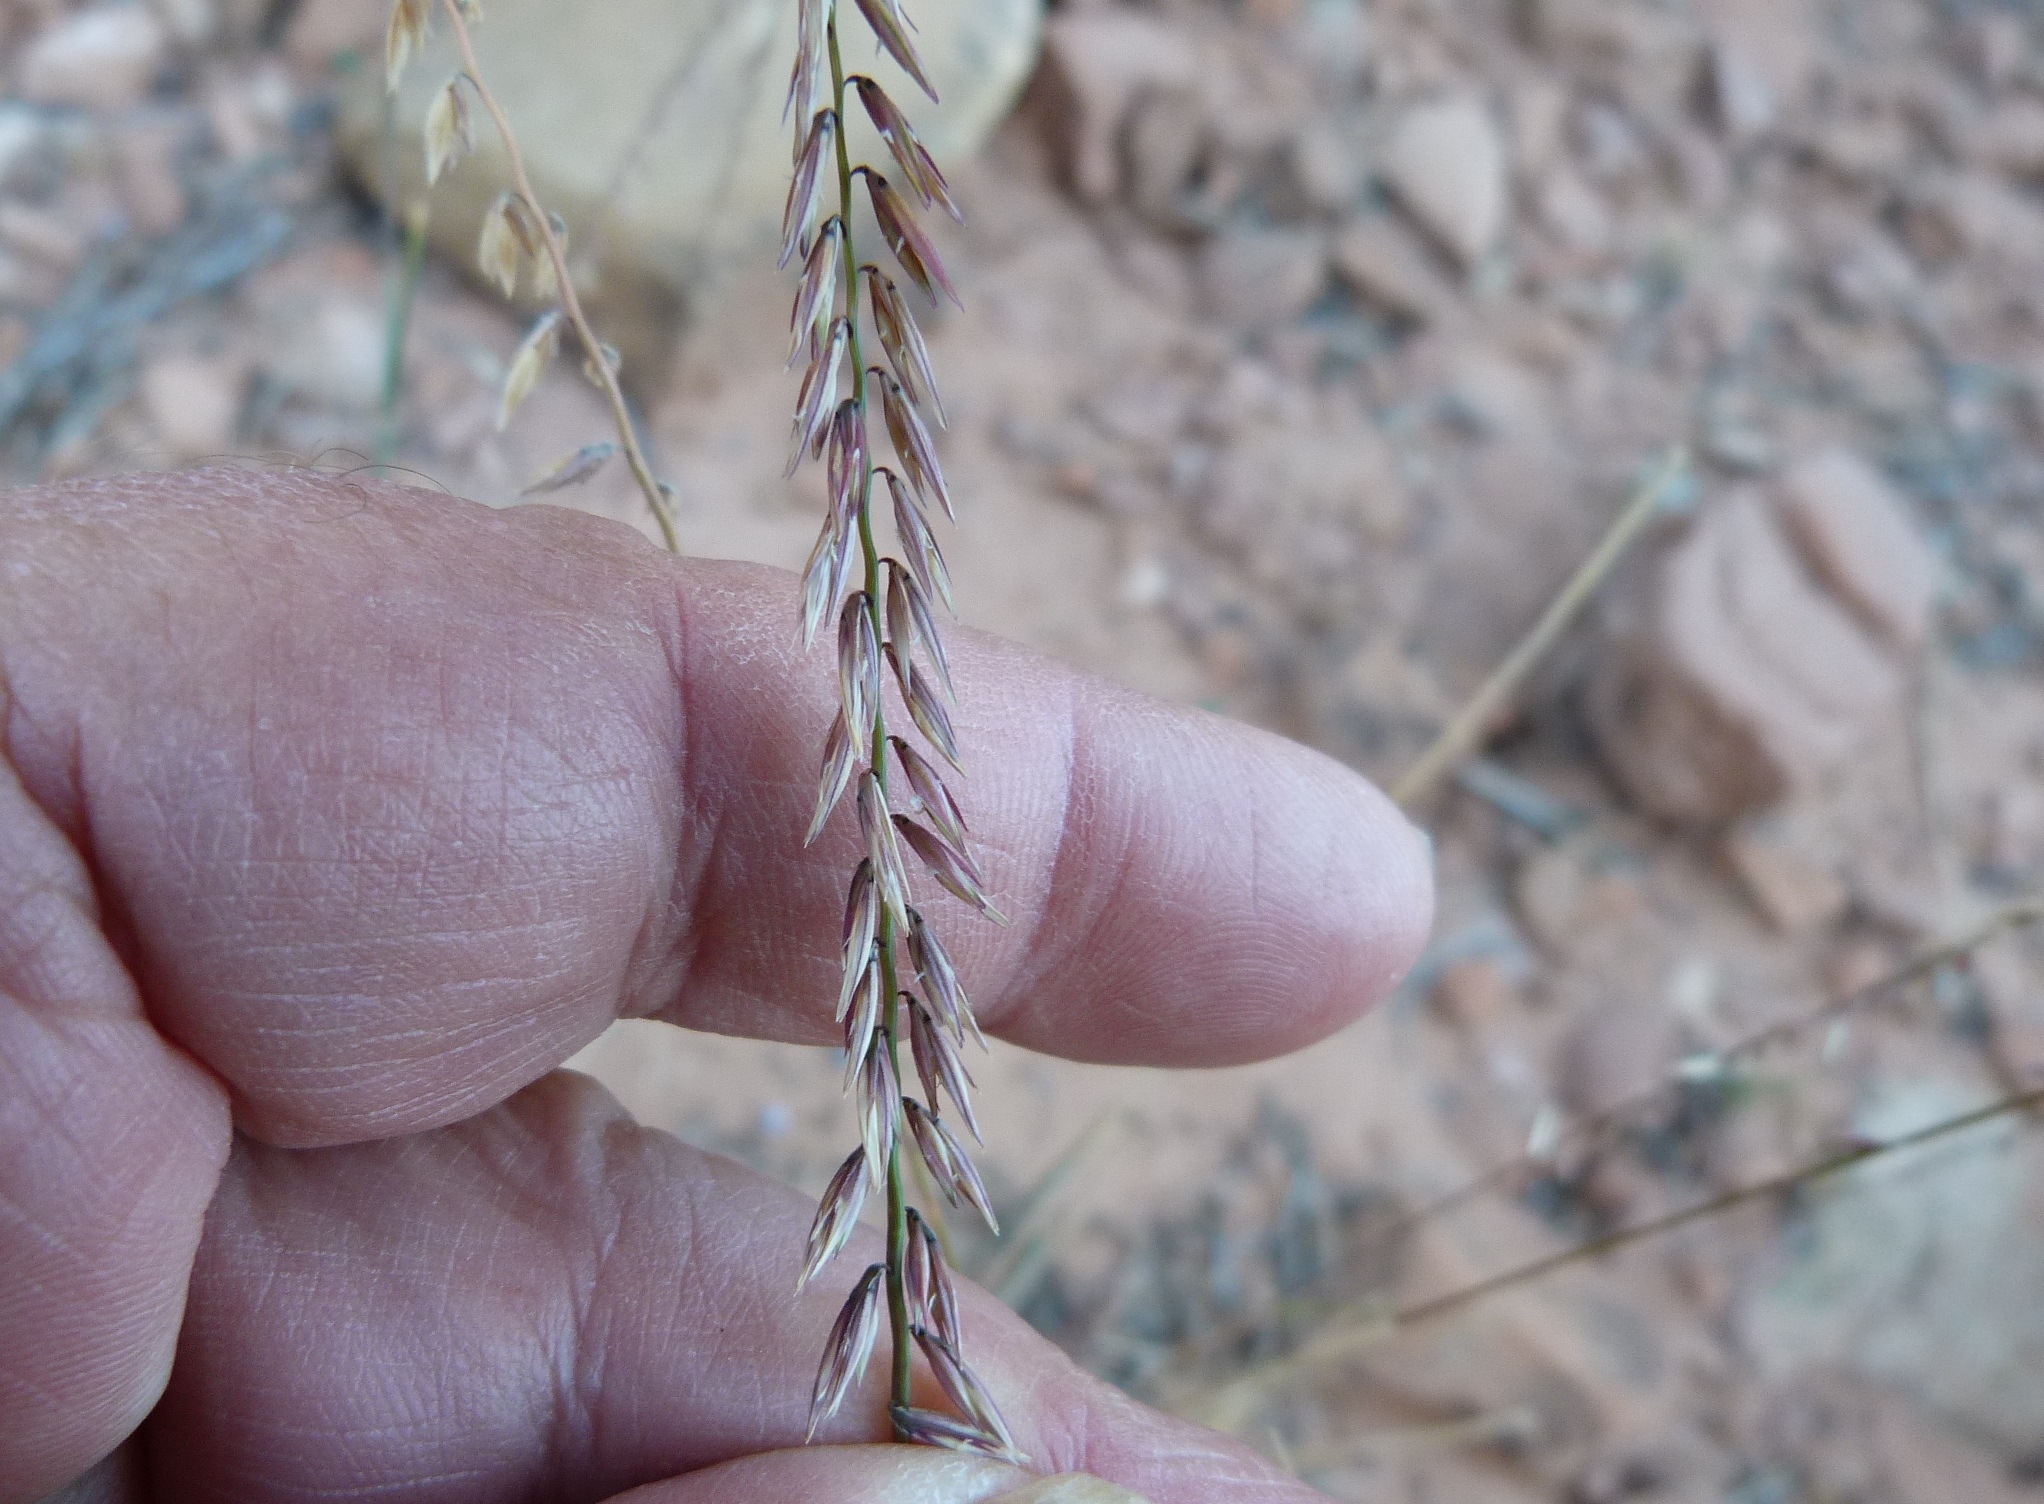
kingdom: Plantae
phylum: Tracheophyta
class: Liliopsida
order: Poales
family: Poaceae
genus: Bouteloua
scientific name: Bouteloua curtipendula
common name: Side-oats grama
